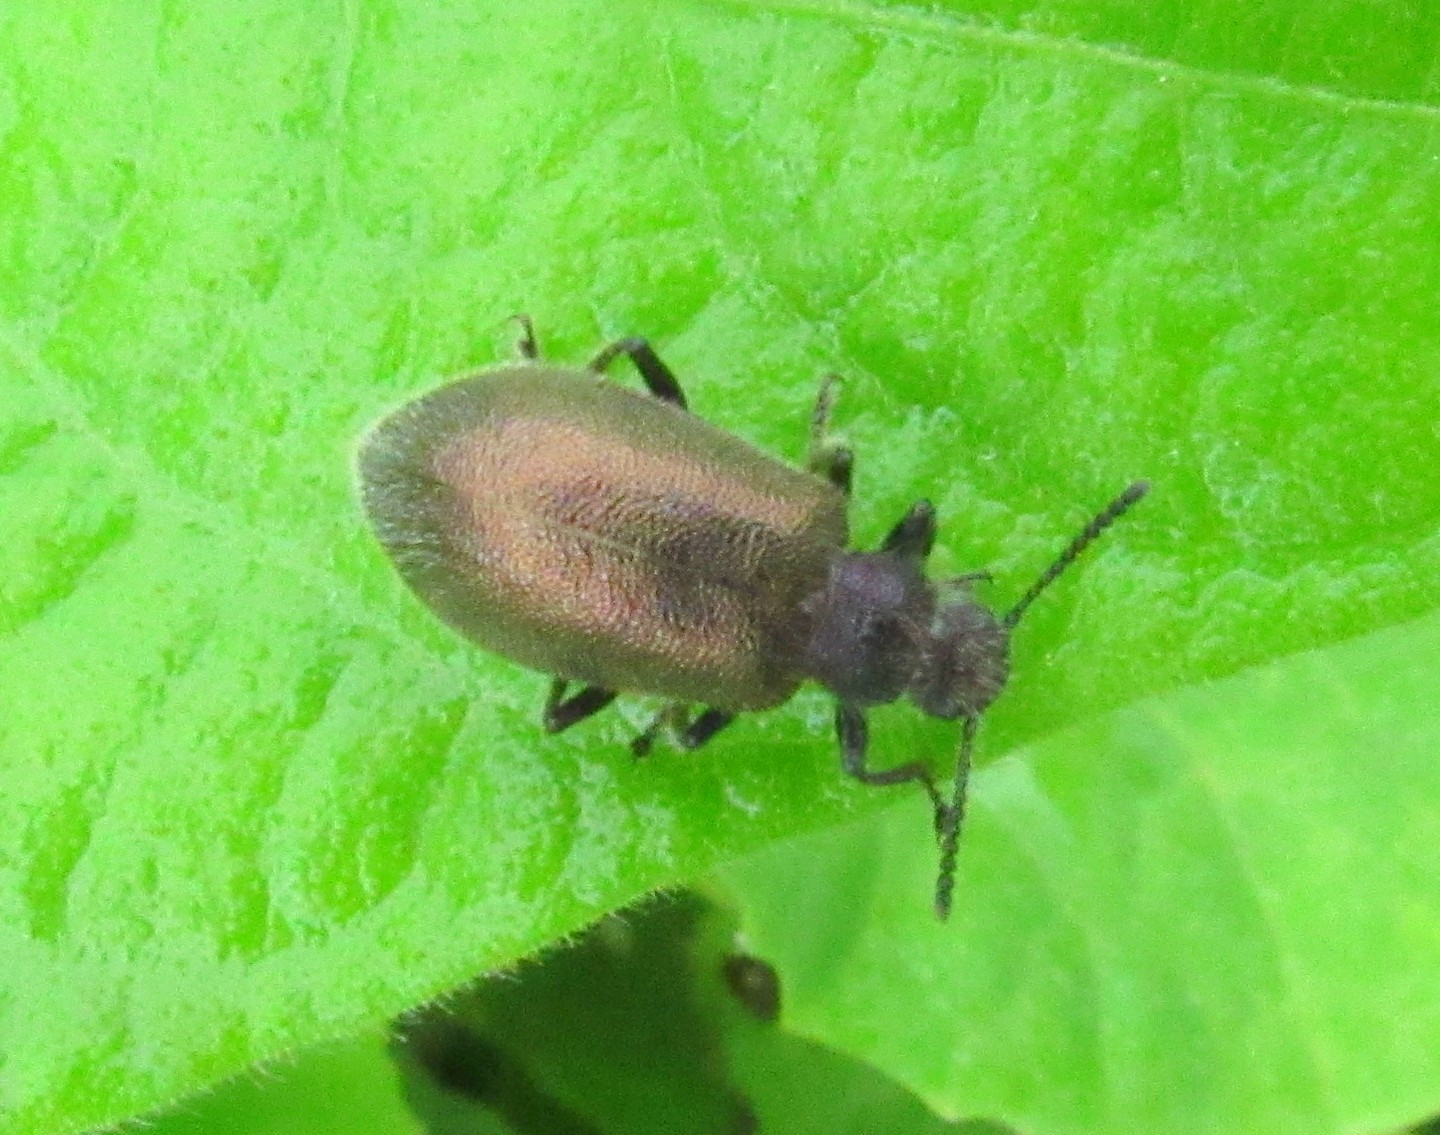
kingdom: Animalia
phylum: Arthropoda
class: Insecta
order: Coleoptera
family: Tenebrionidae
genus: Lagria
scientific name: Lagria villosa
